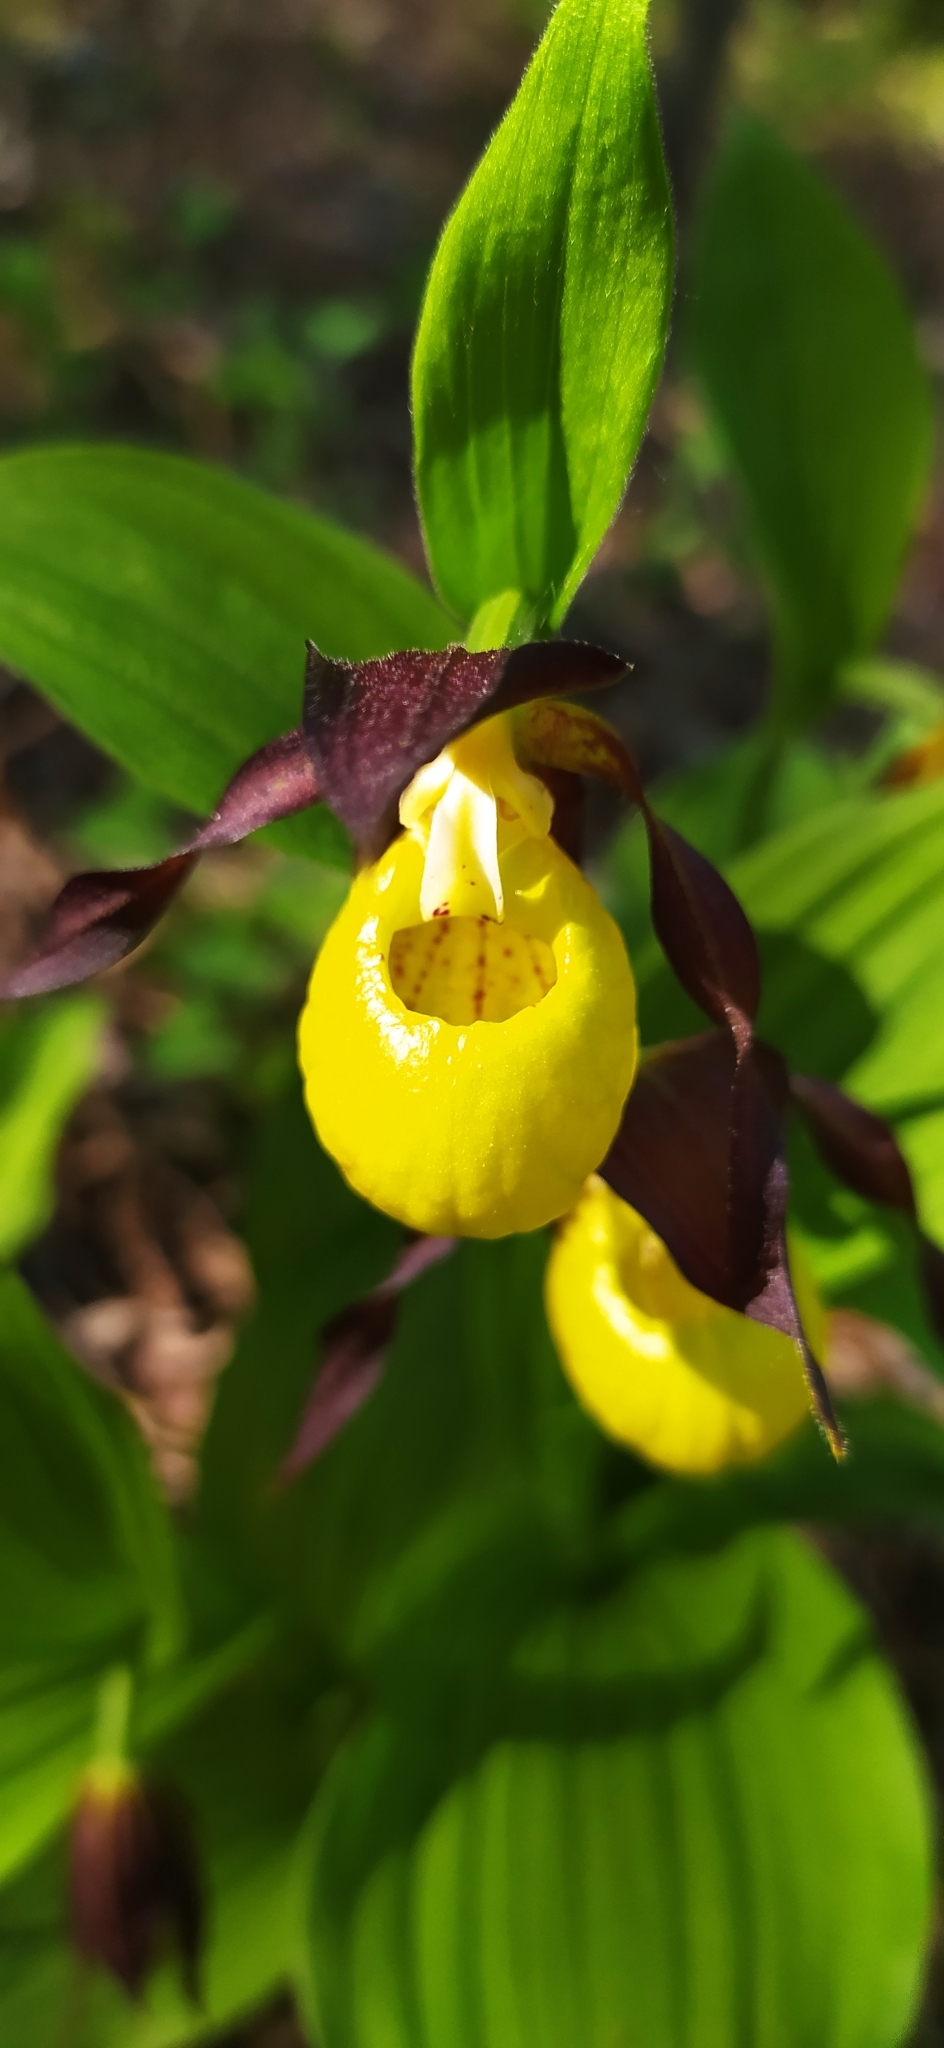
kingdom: Plantae
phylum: Tracheophyta
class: Liliopsida
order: Asparagales
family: Orchidaceae
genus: Cypripedium
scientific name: Cypripedium calceolus
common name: Lady's-slipper
